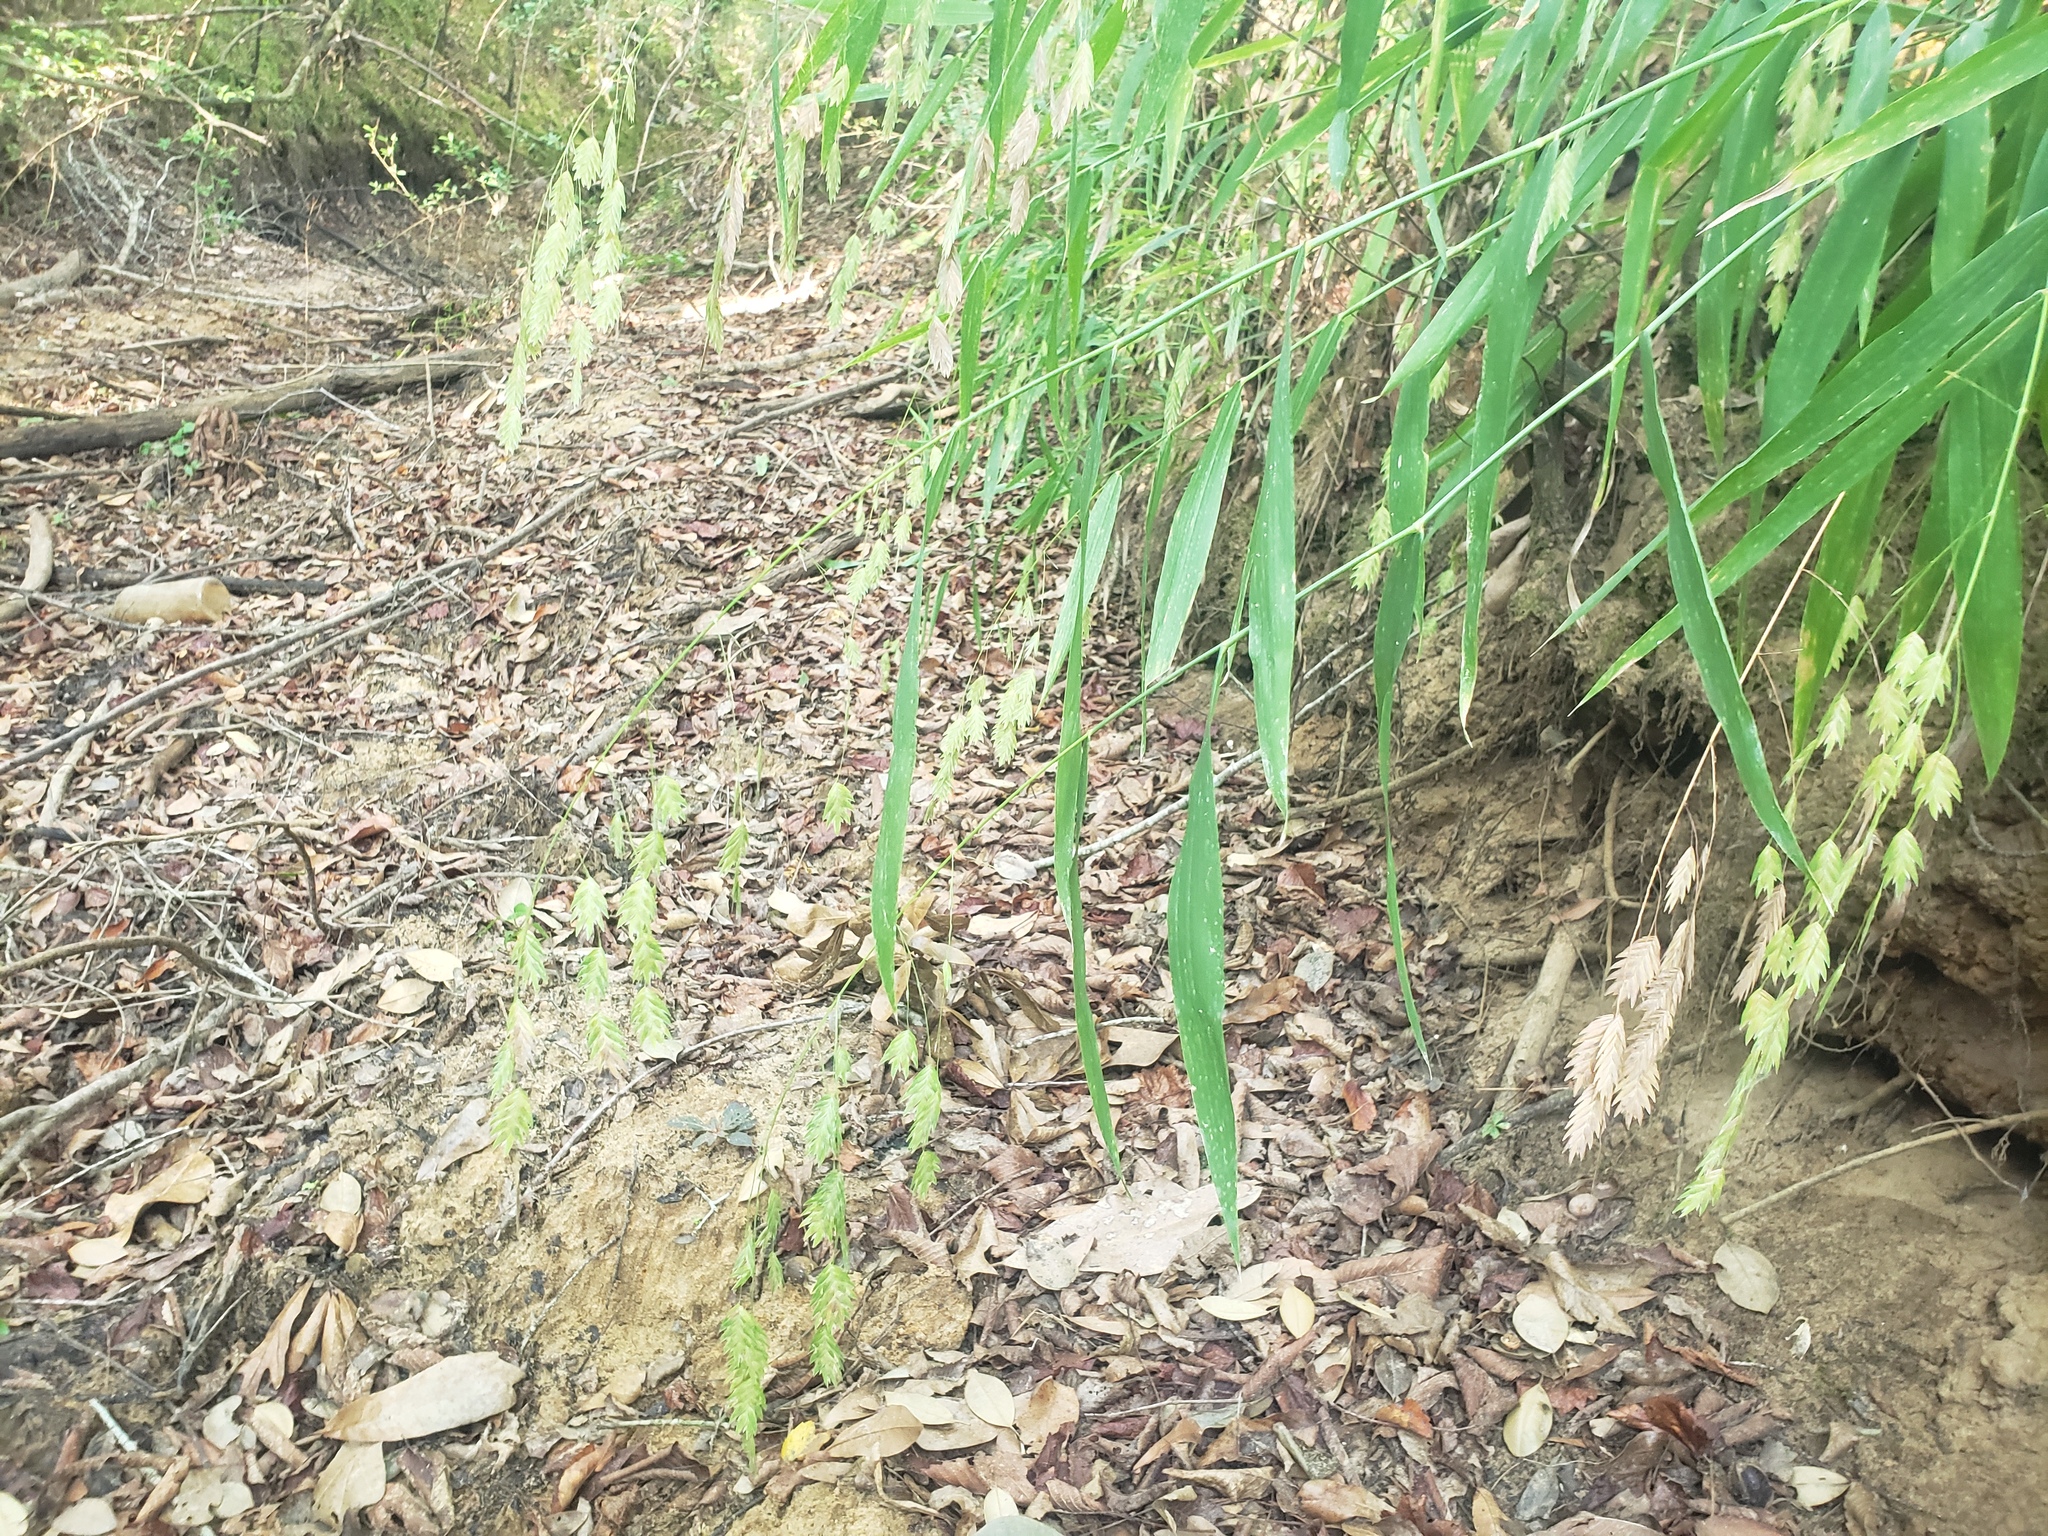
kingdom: Plantae
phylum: Tracheophyta
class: Liliopsida
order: Poales
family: Poaceae
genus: Chasmanthium
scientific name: Chasmanthium latifolium
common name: Broad-leaved chasmanthium
